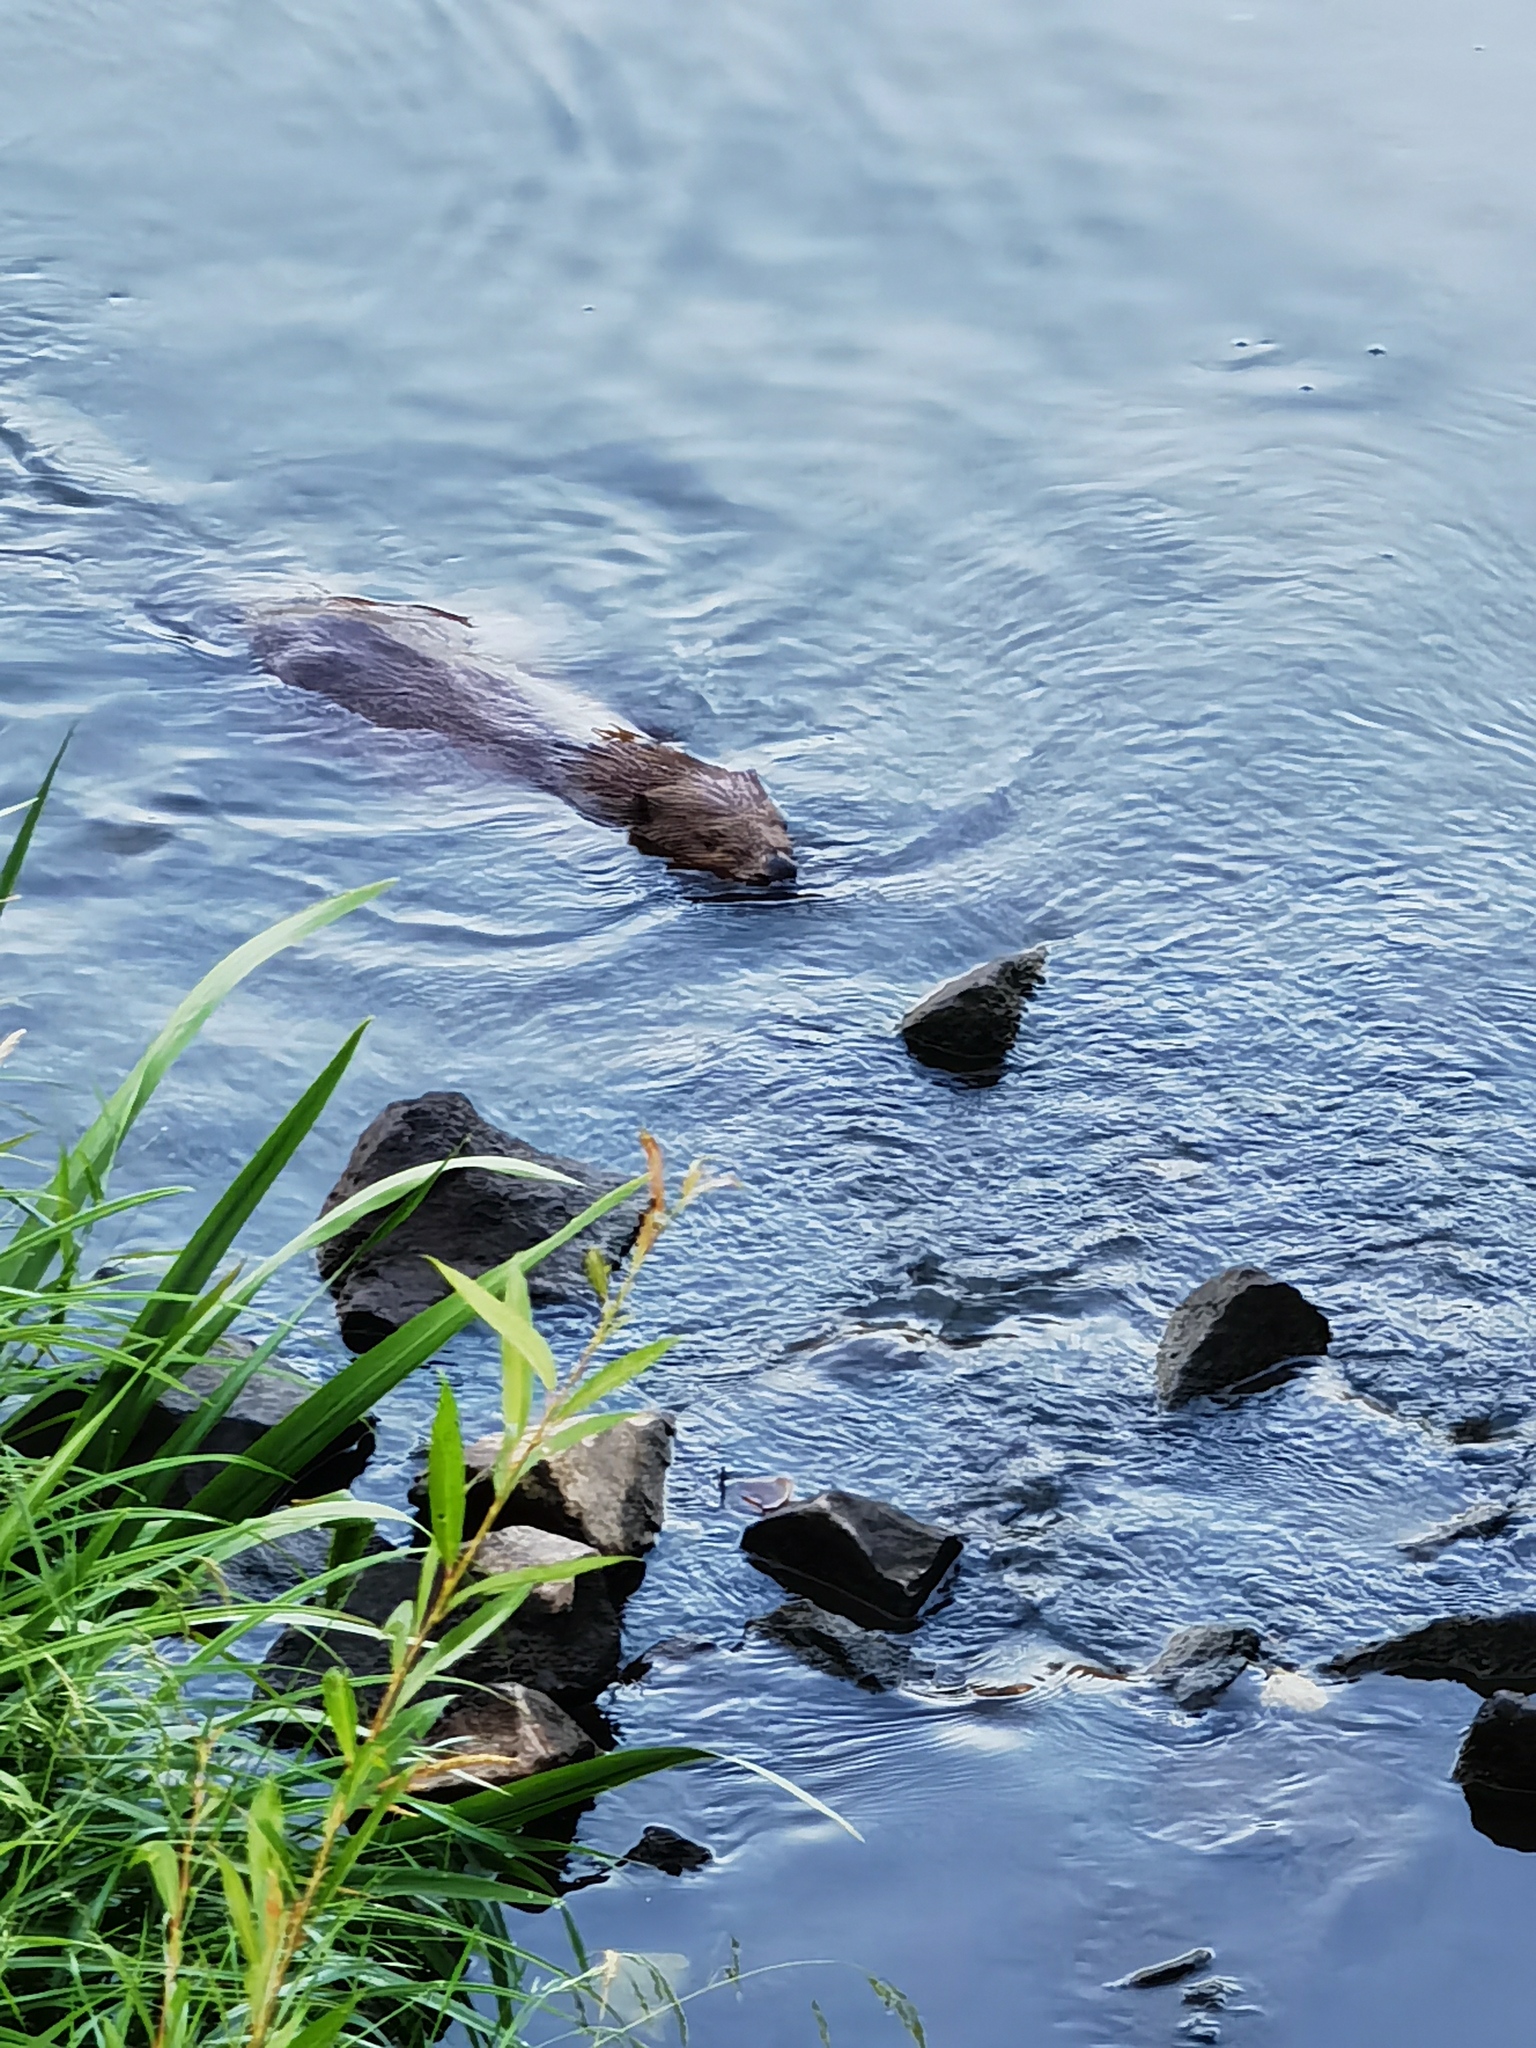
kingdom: Animalia
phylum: Chordata
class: Mammalia
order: Rodentia
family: Castoridae
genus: Castor
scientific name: Castor fiber
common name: Eurasian beaver
